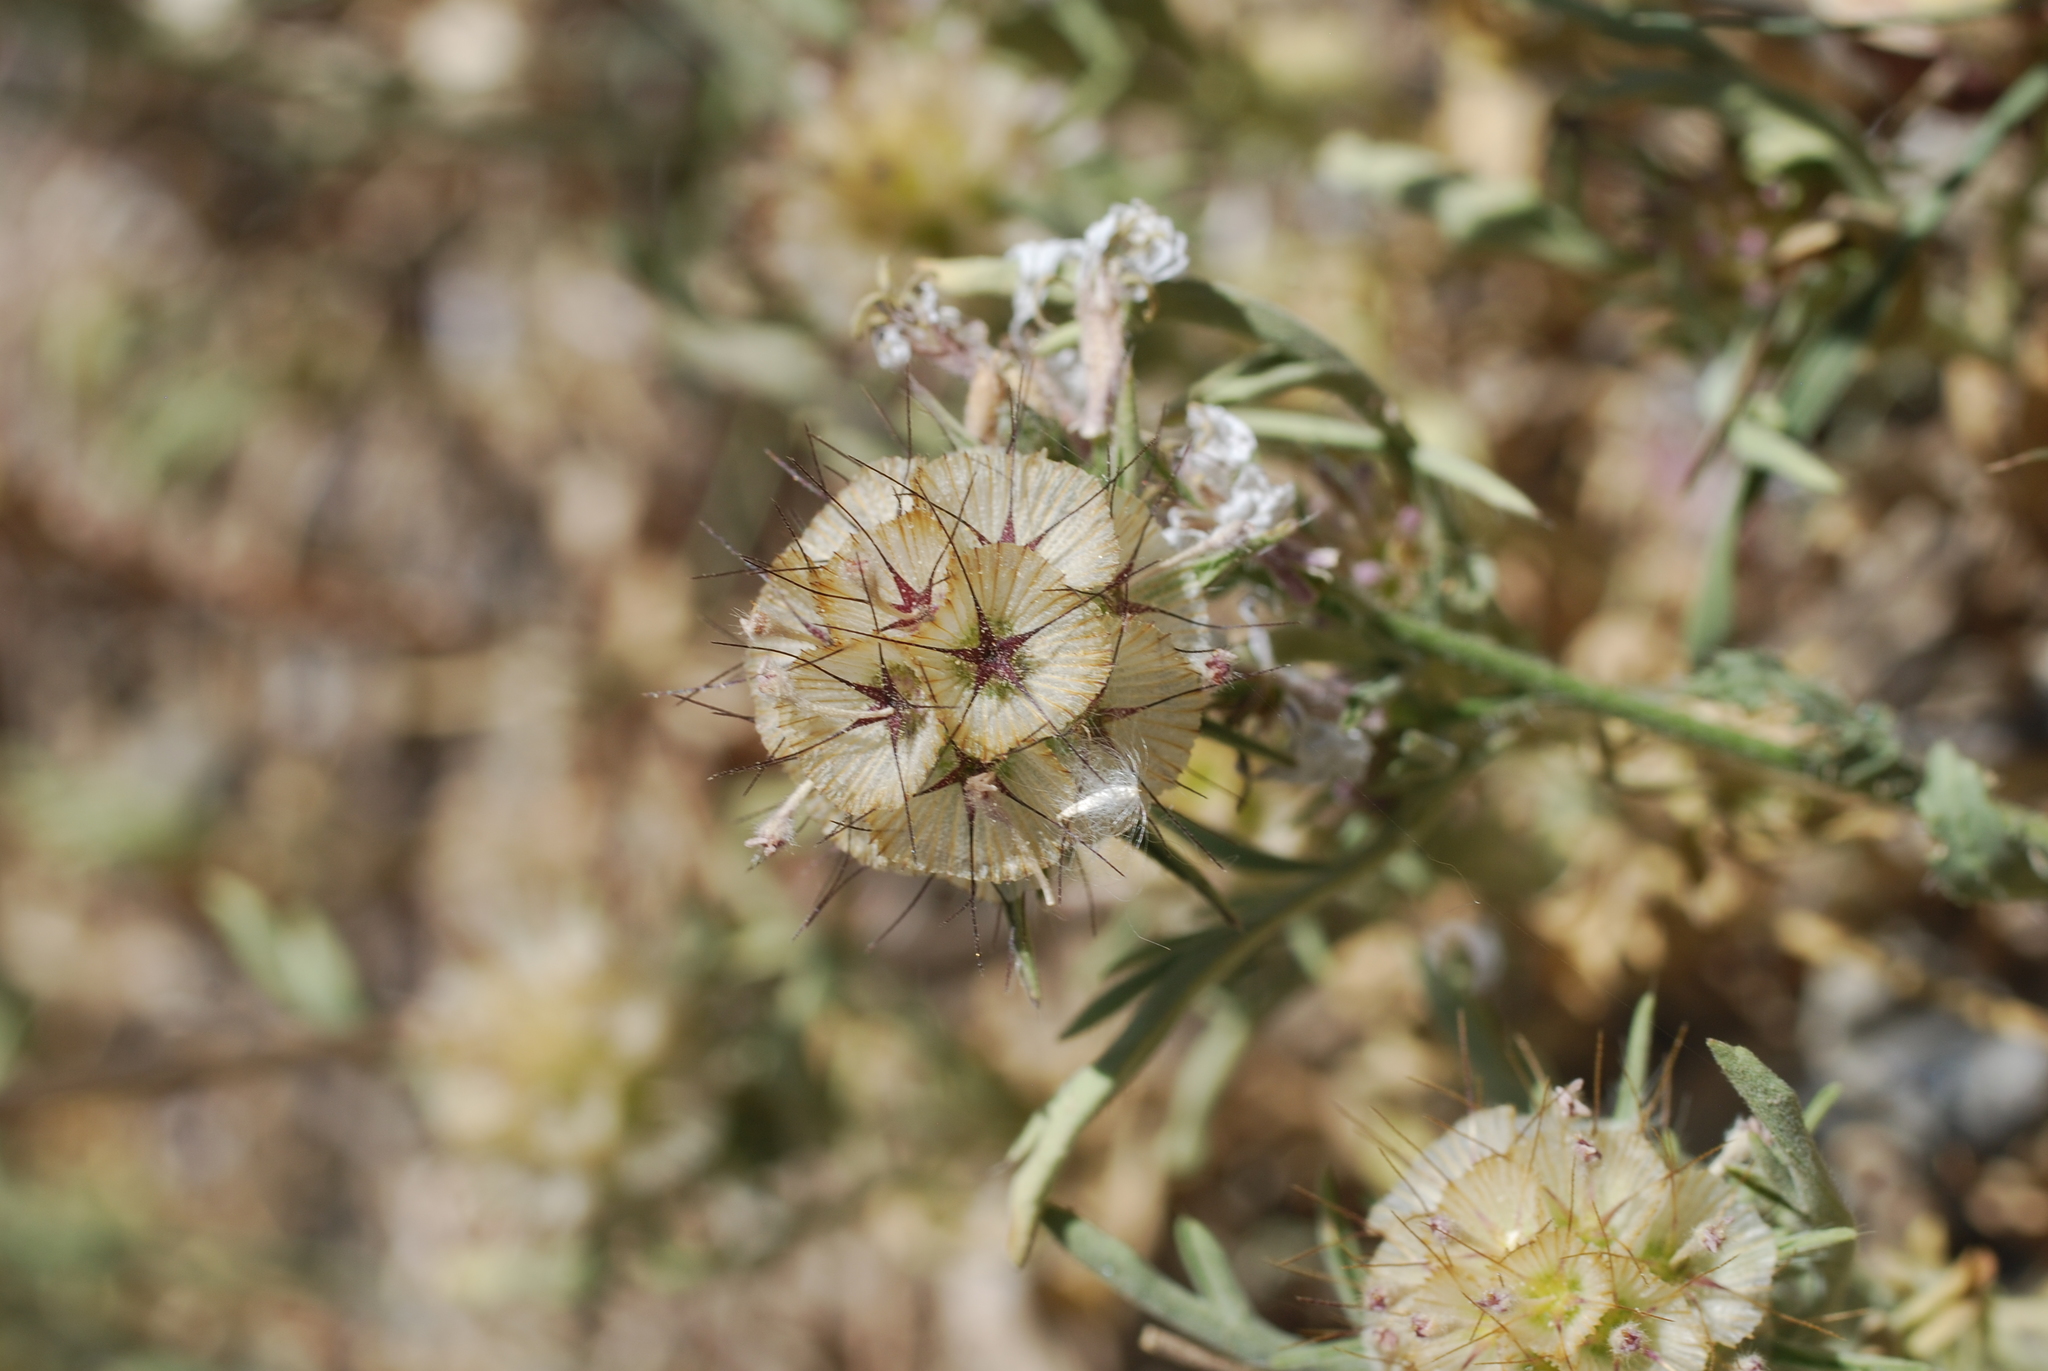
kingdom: Plantae
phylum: Tracheophyta
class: Magnoliopsida
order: Dipsacales
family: Caprifoliaceae
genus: Lomelosia
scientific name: Lomelosia stellata
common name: Teasel
